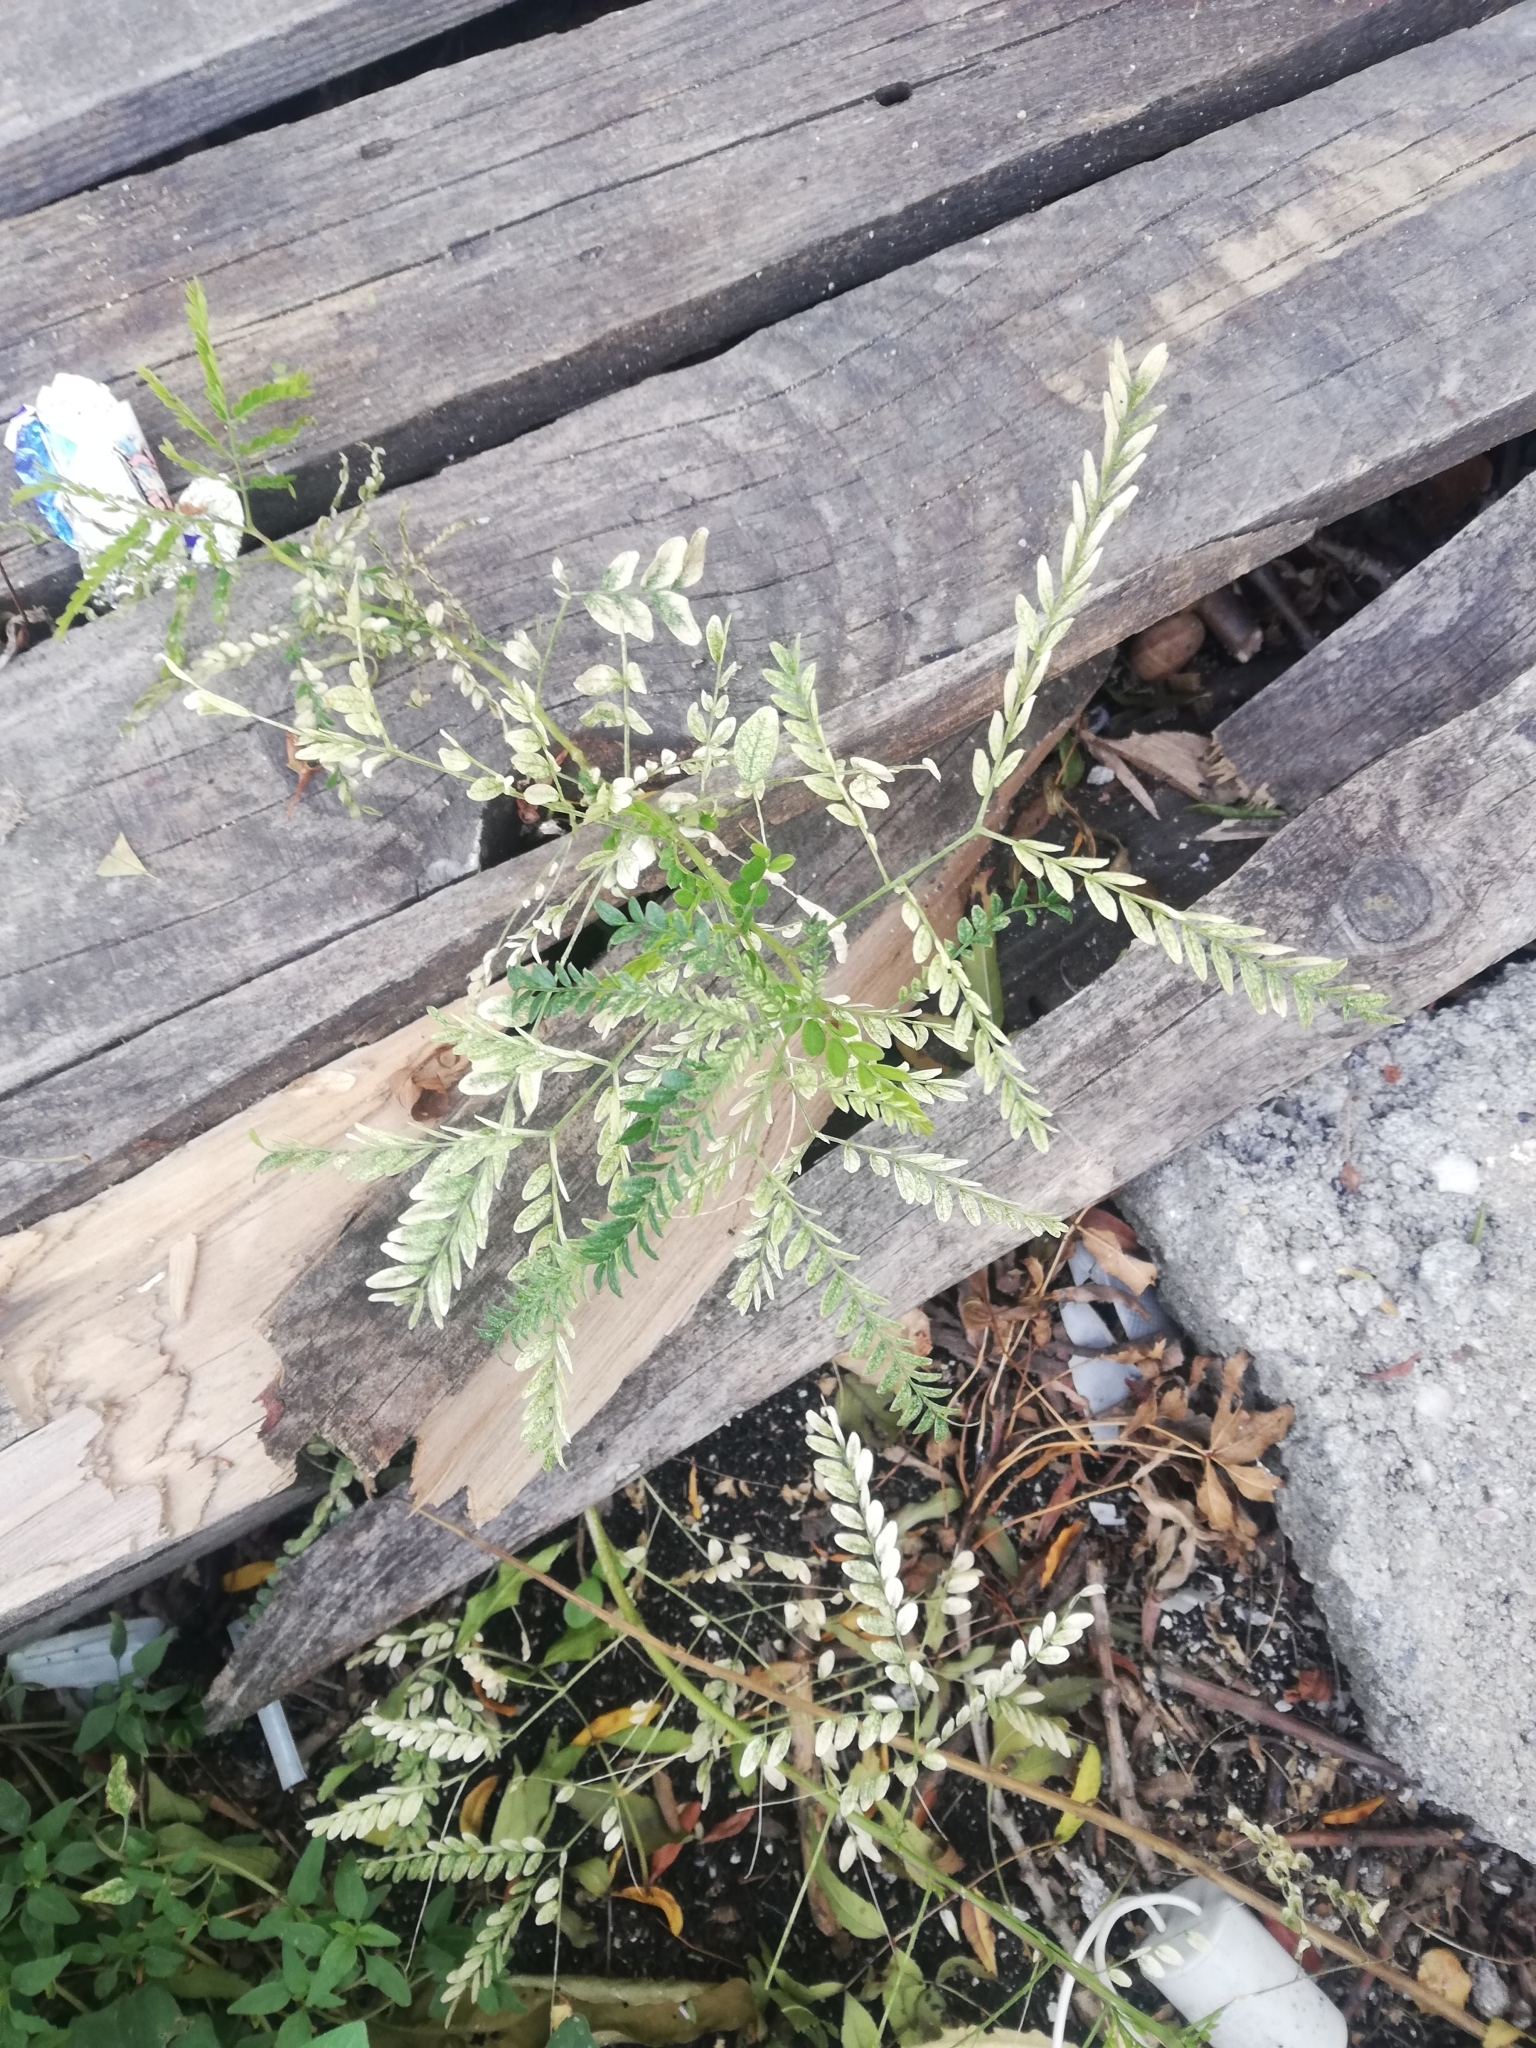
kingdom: Plantae
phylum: Tracheophyta
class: Magnoliopsida
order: Fabales
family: Fabaceae
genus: Gleditsia
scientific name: Gleditsia triacanthos
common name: Common honeylocust
